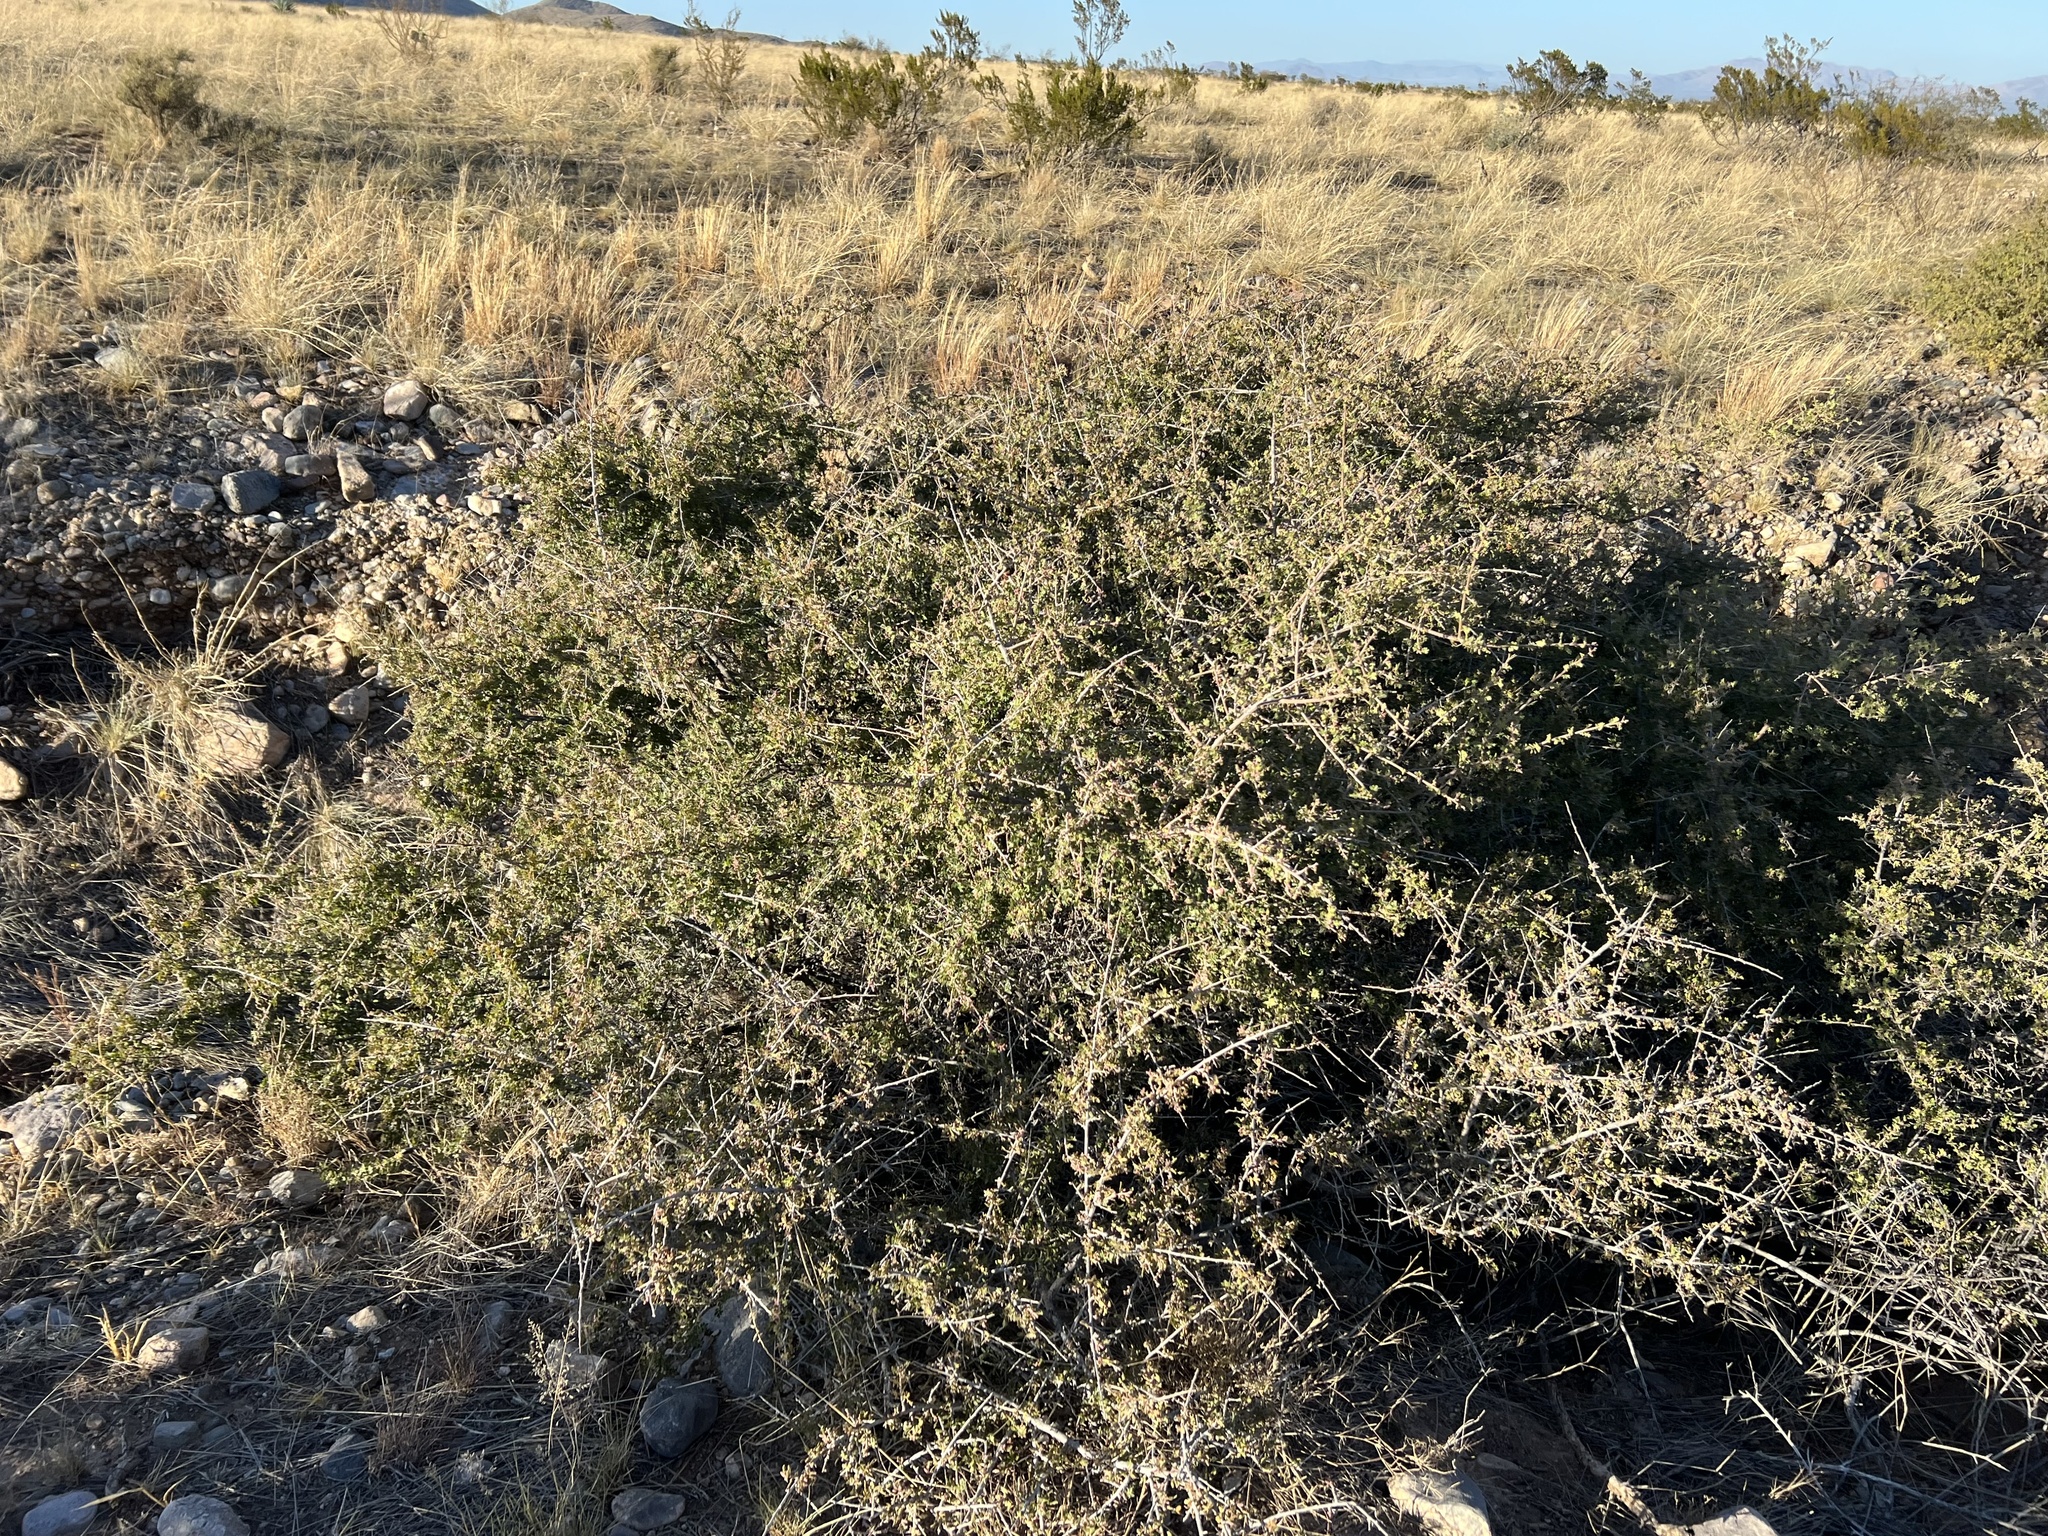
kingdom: Plantae
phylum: Tracheophyta
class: Magnoliopsida
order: Sapindales
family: Anacardiaceae
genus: Rhus
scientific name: Rhus microphylla
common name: Desert sumac
